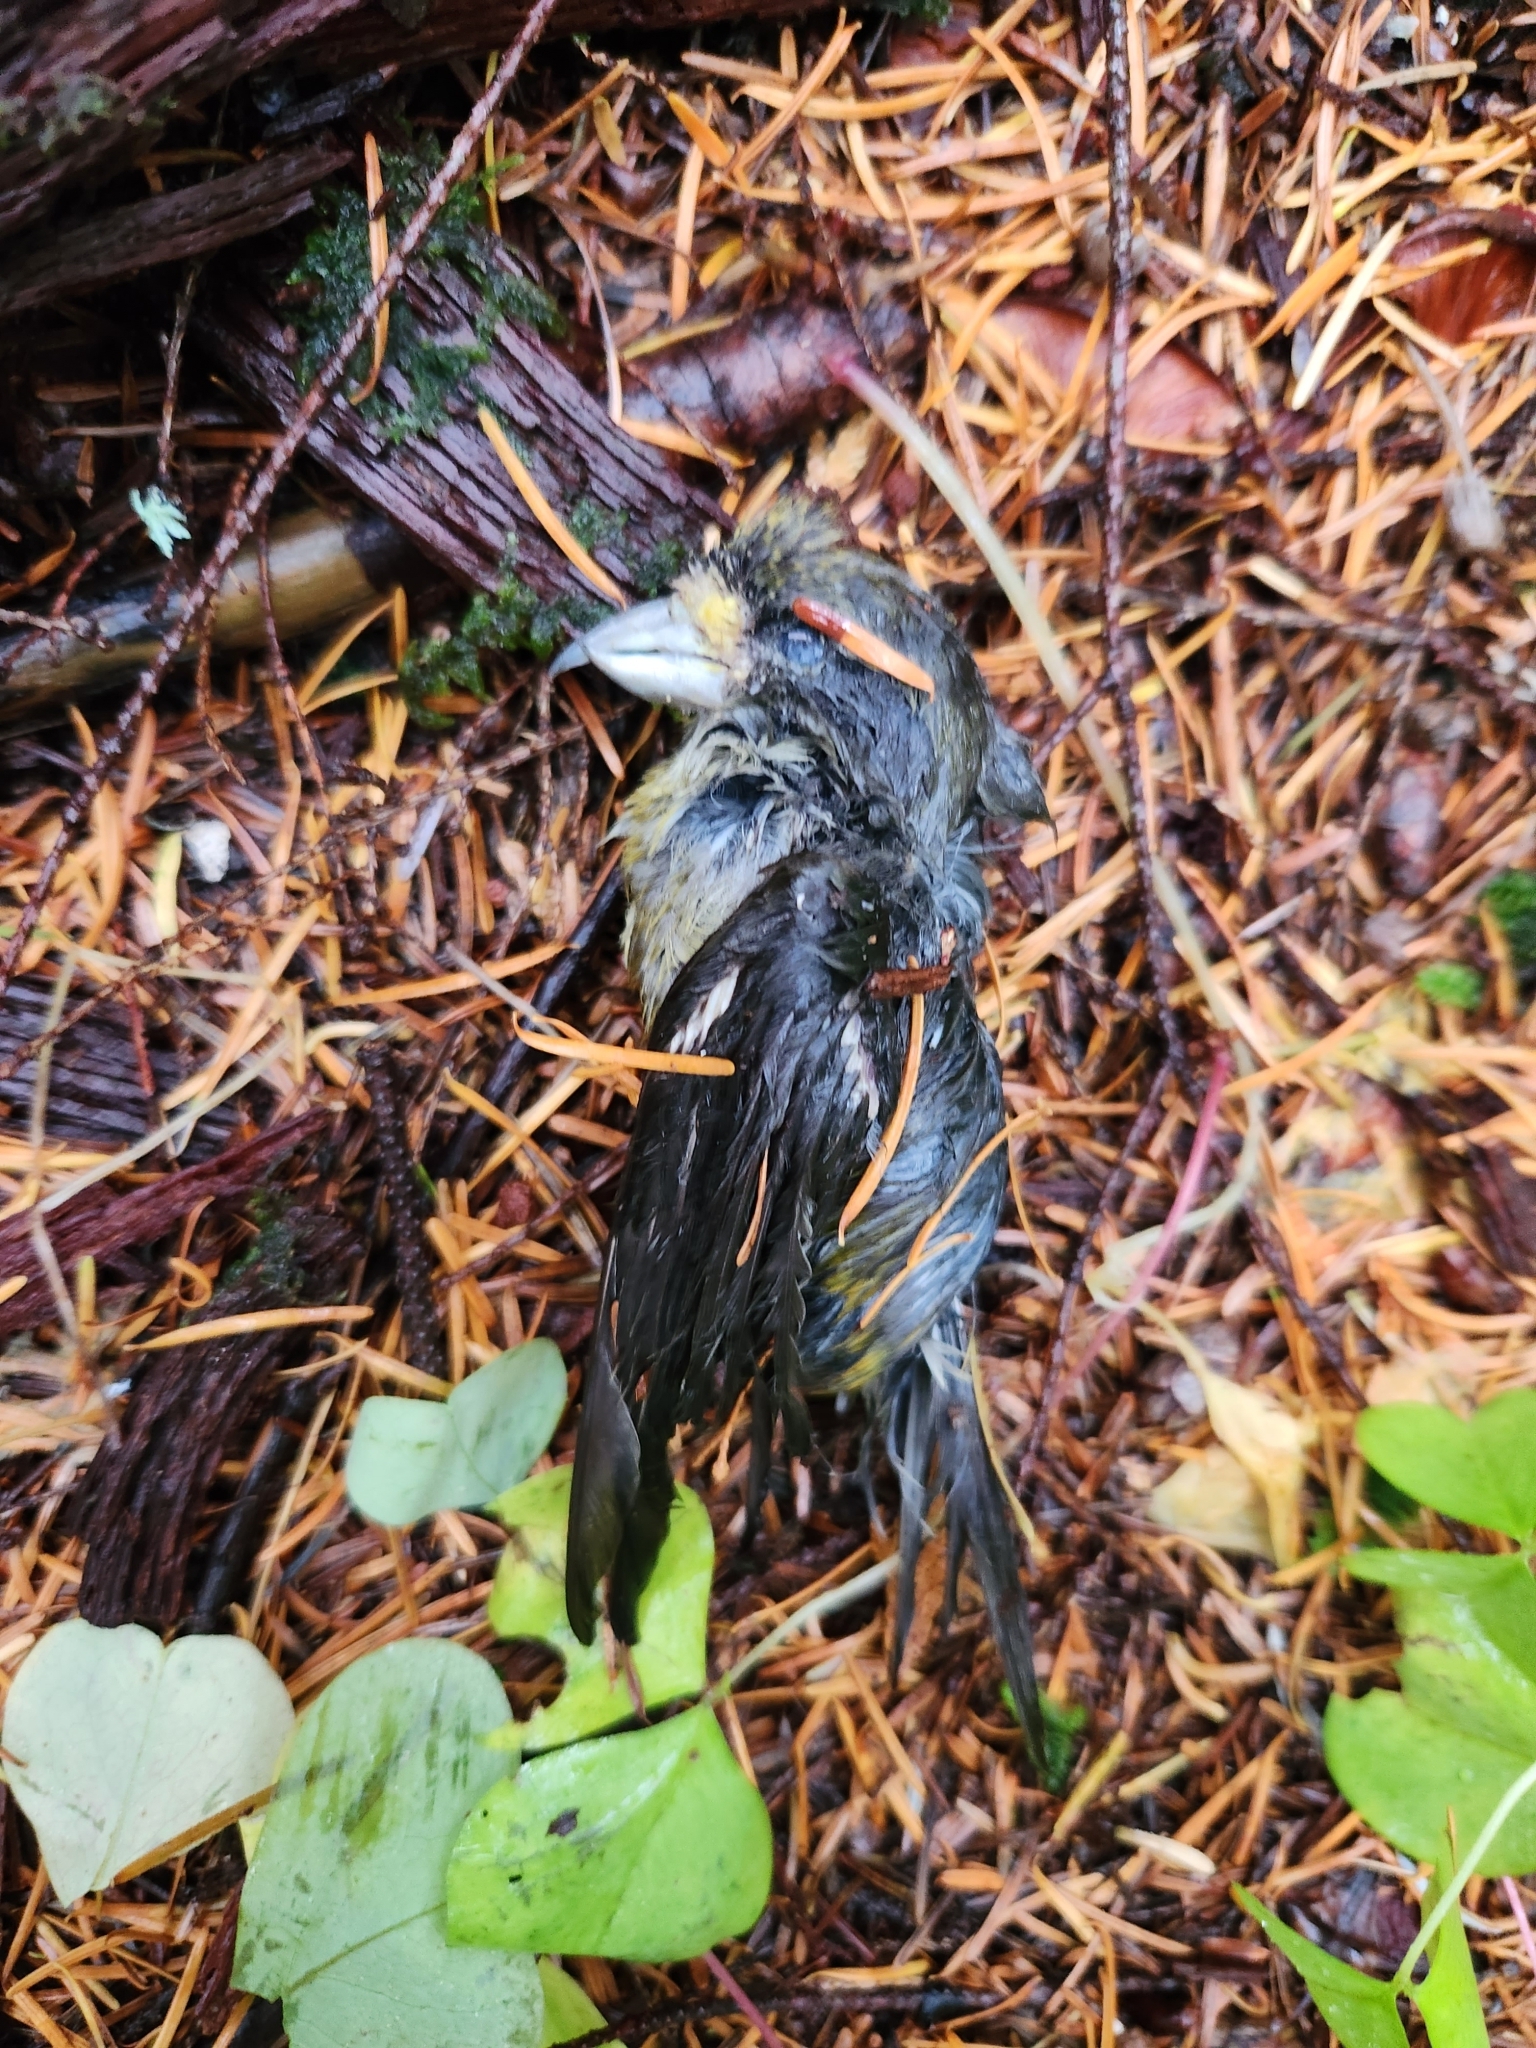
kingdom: Animalia
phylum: Chordata
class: Aves
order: Passeriformes
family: Fringillidae
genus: Loxia
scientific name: Loxia curvirostra
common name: Red crossbill
